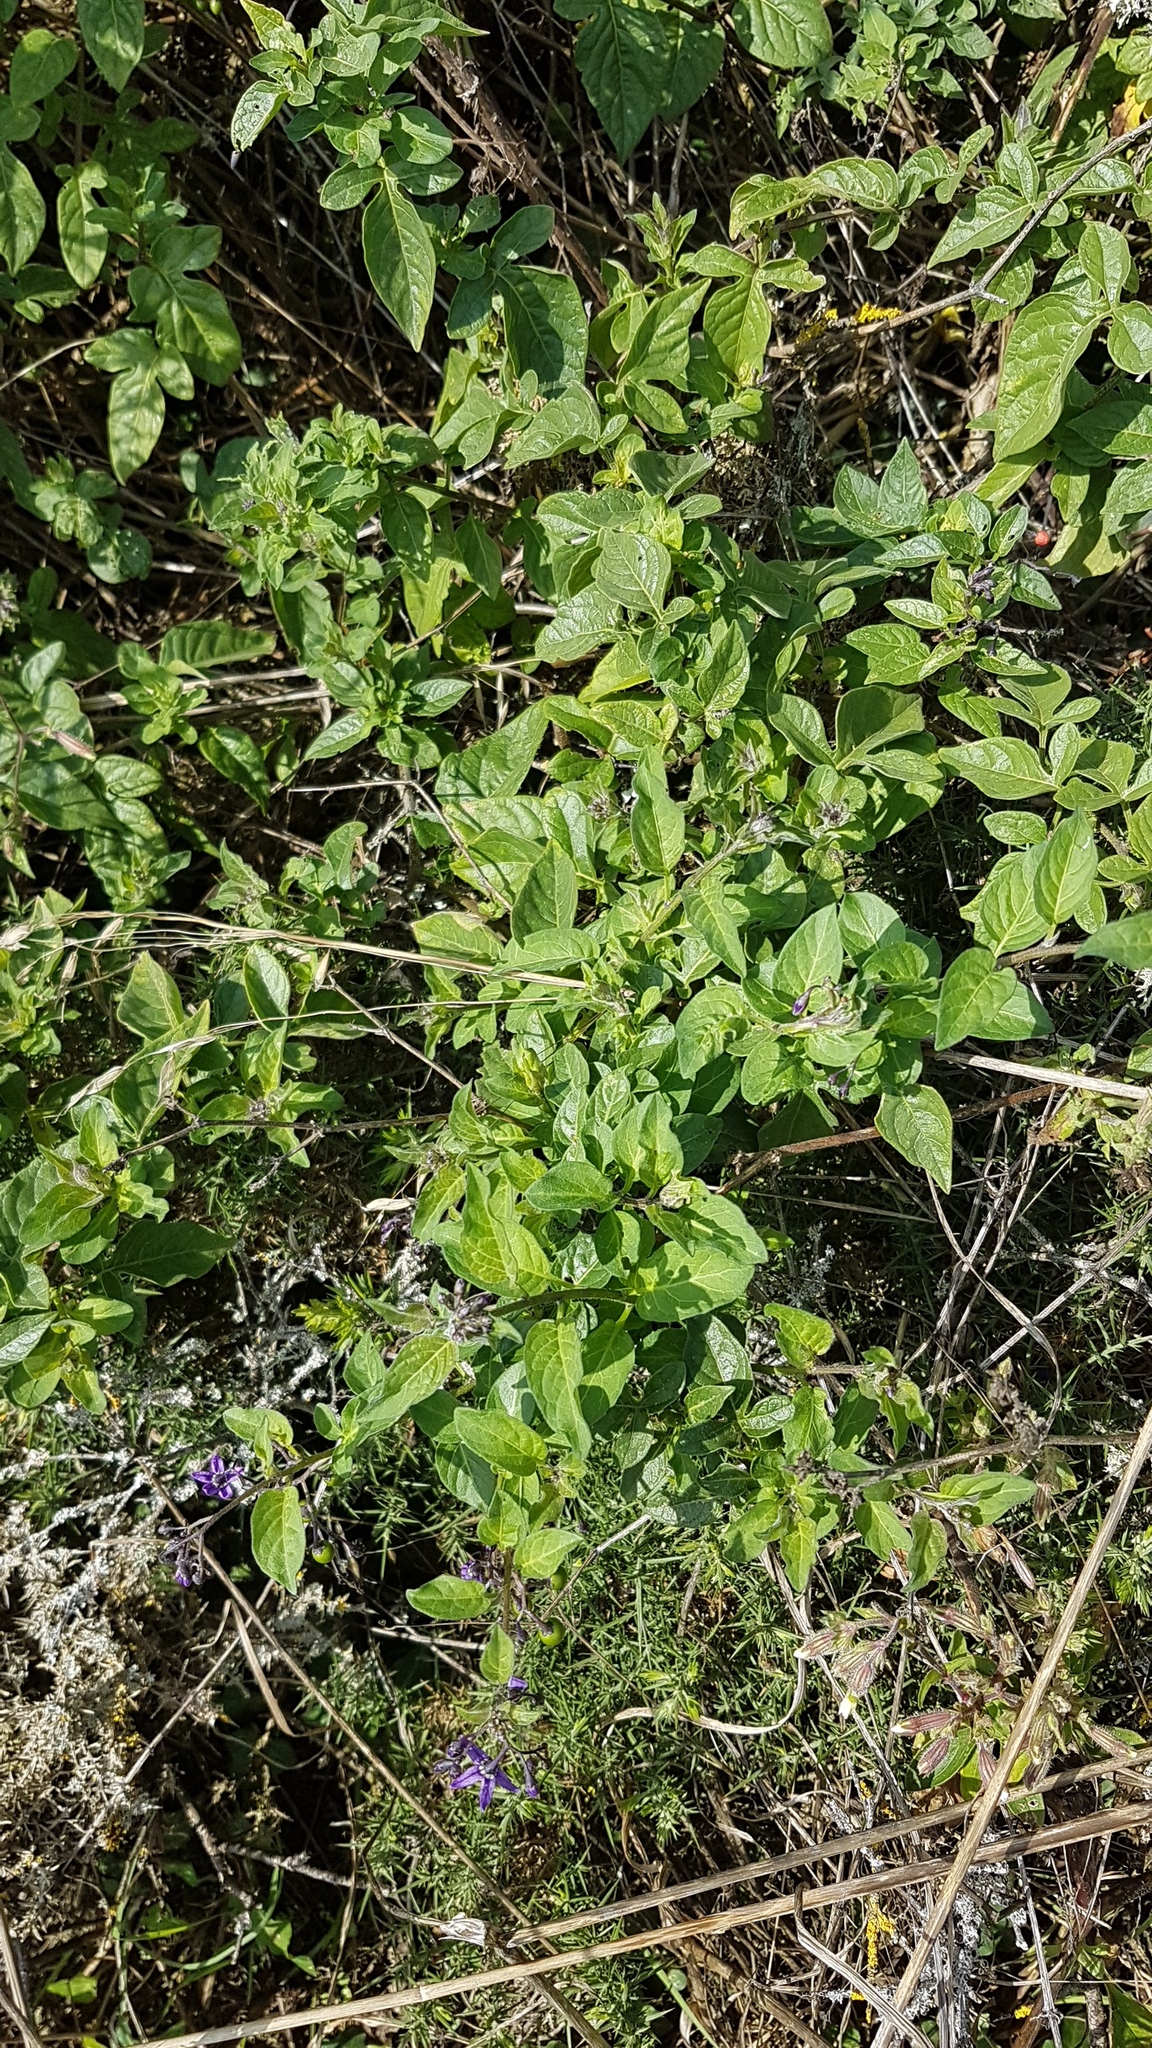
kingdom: Plantae
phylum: Tracheophyta
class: Magnoliopsida
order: Solanales
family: Solanaceae
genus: Solanum
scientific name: Solanum dulcamara
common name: Climbing nightshade
